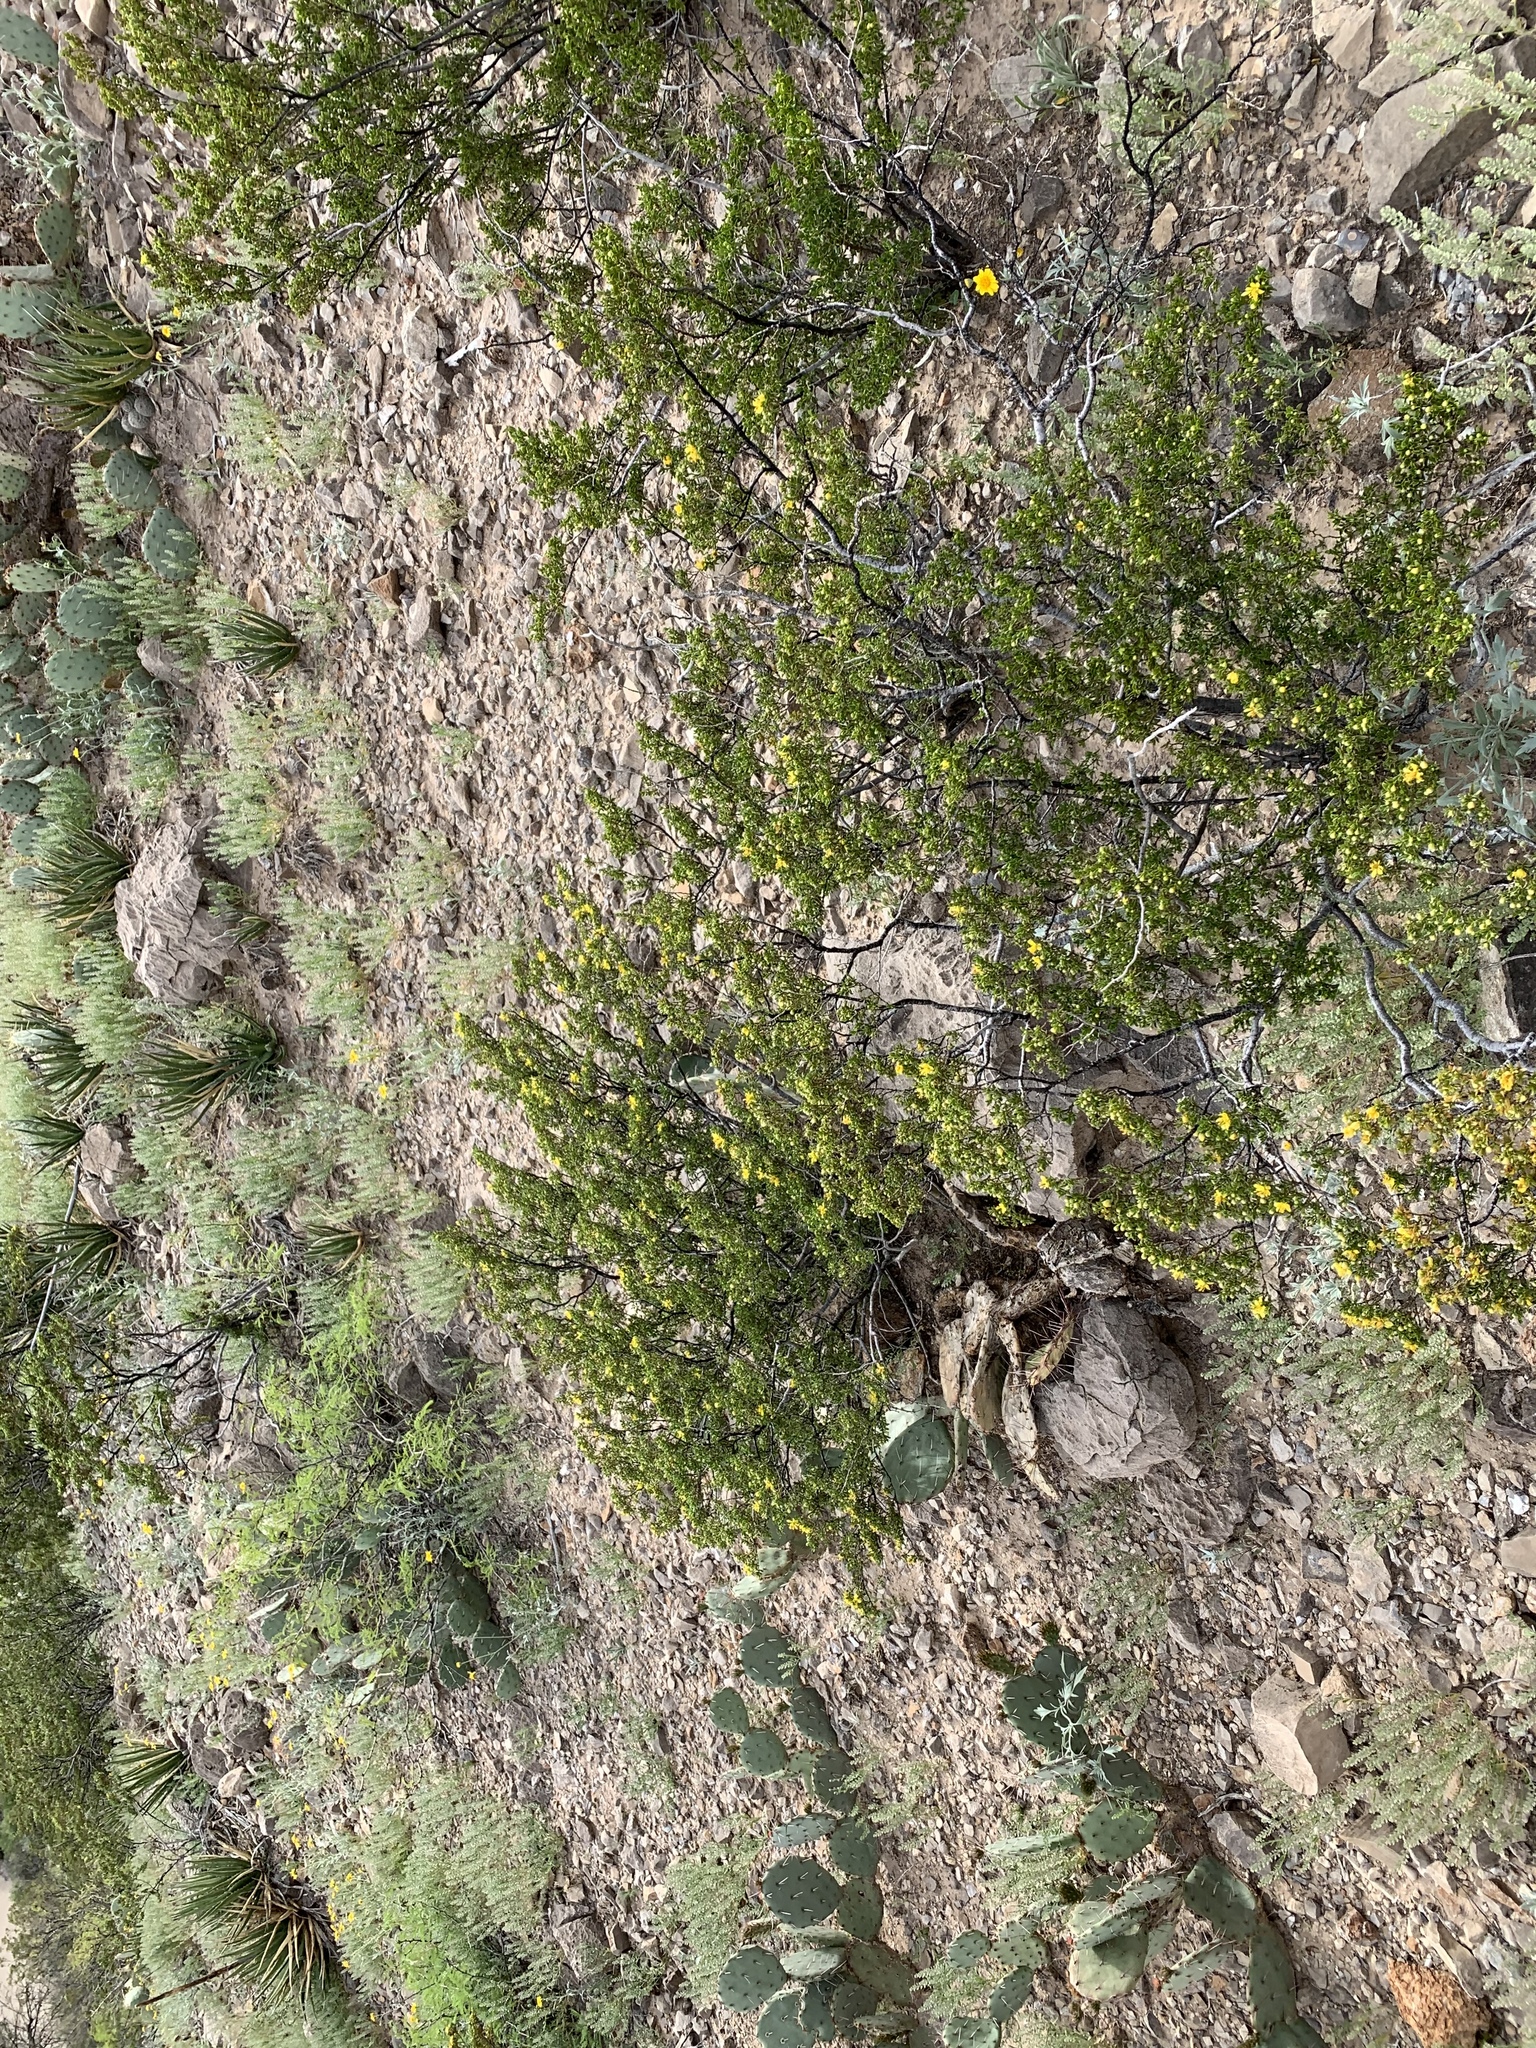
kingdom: Plantae
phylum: Tracheophyta
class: Magnoliopsida
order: Zygophyllales
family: Zygophyllaceae
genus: Larrea
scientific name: Larrea tridentata
